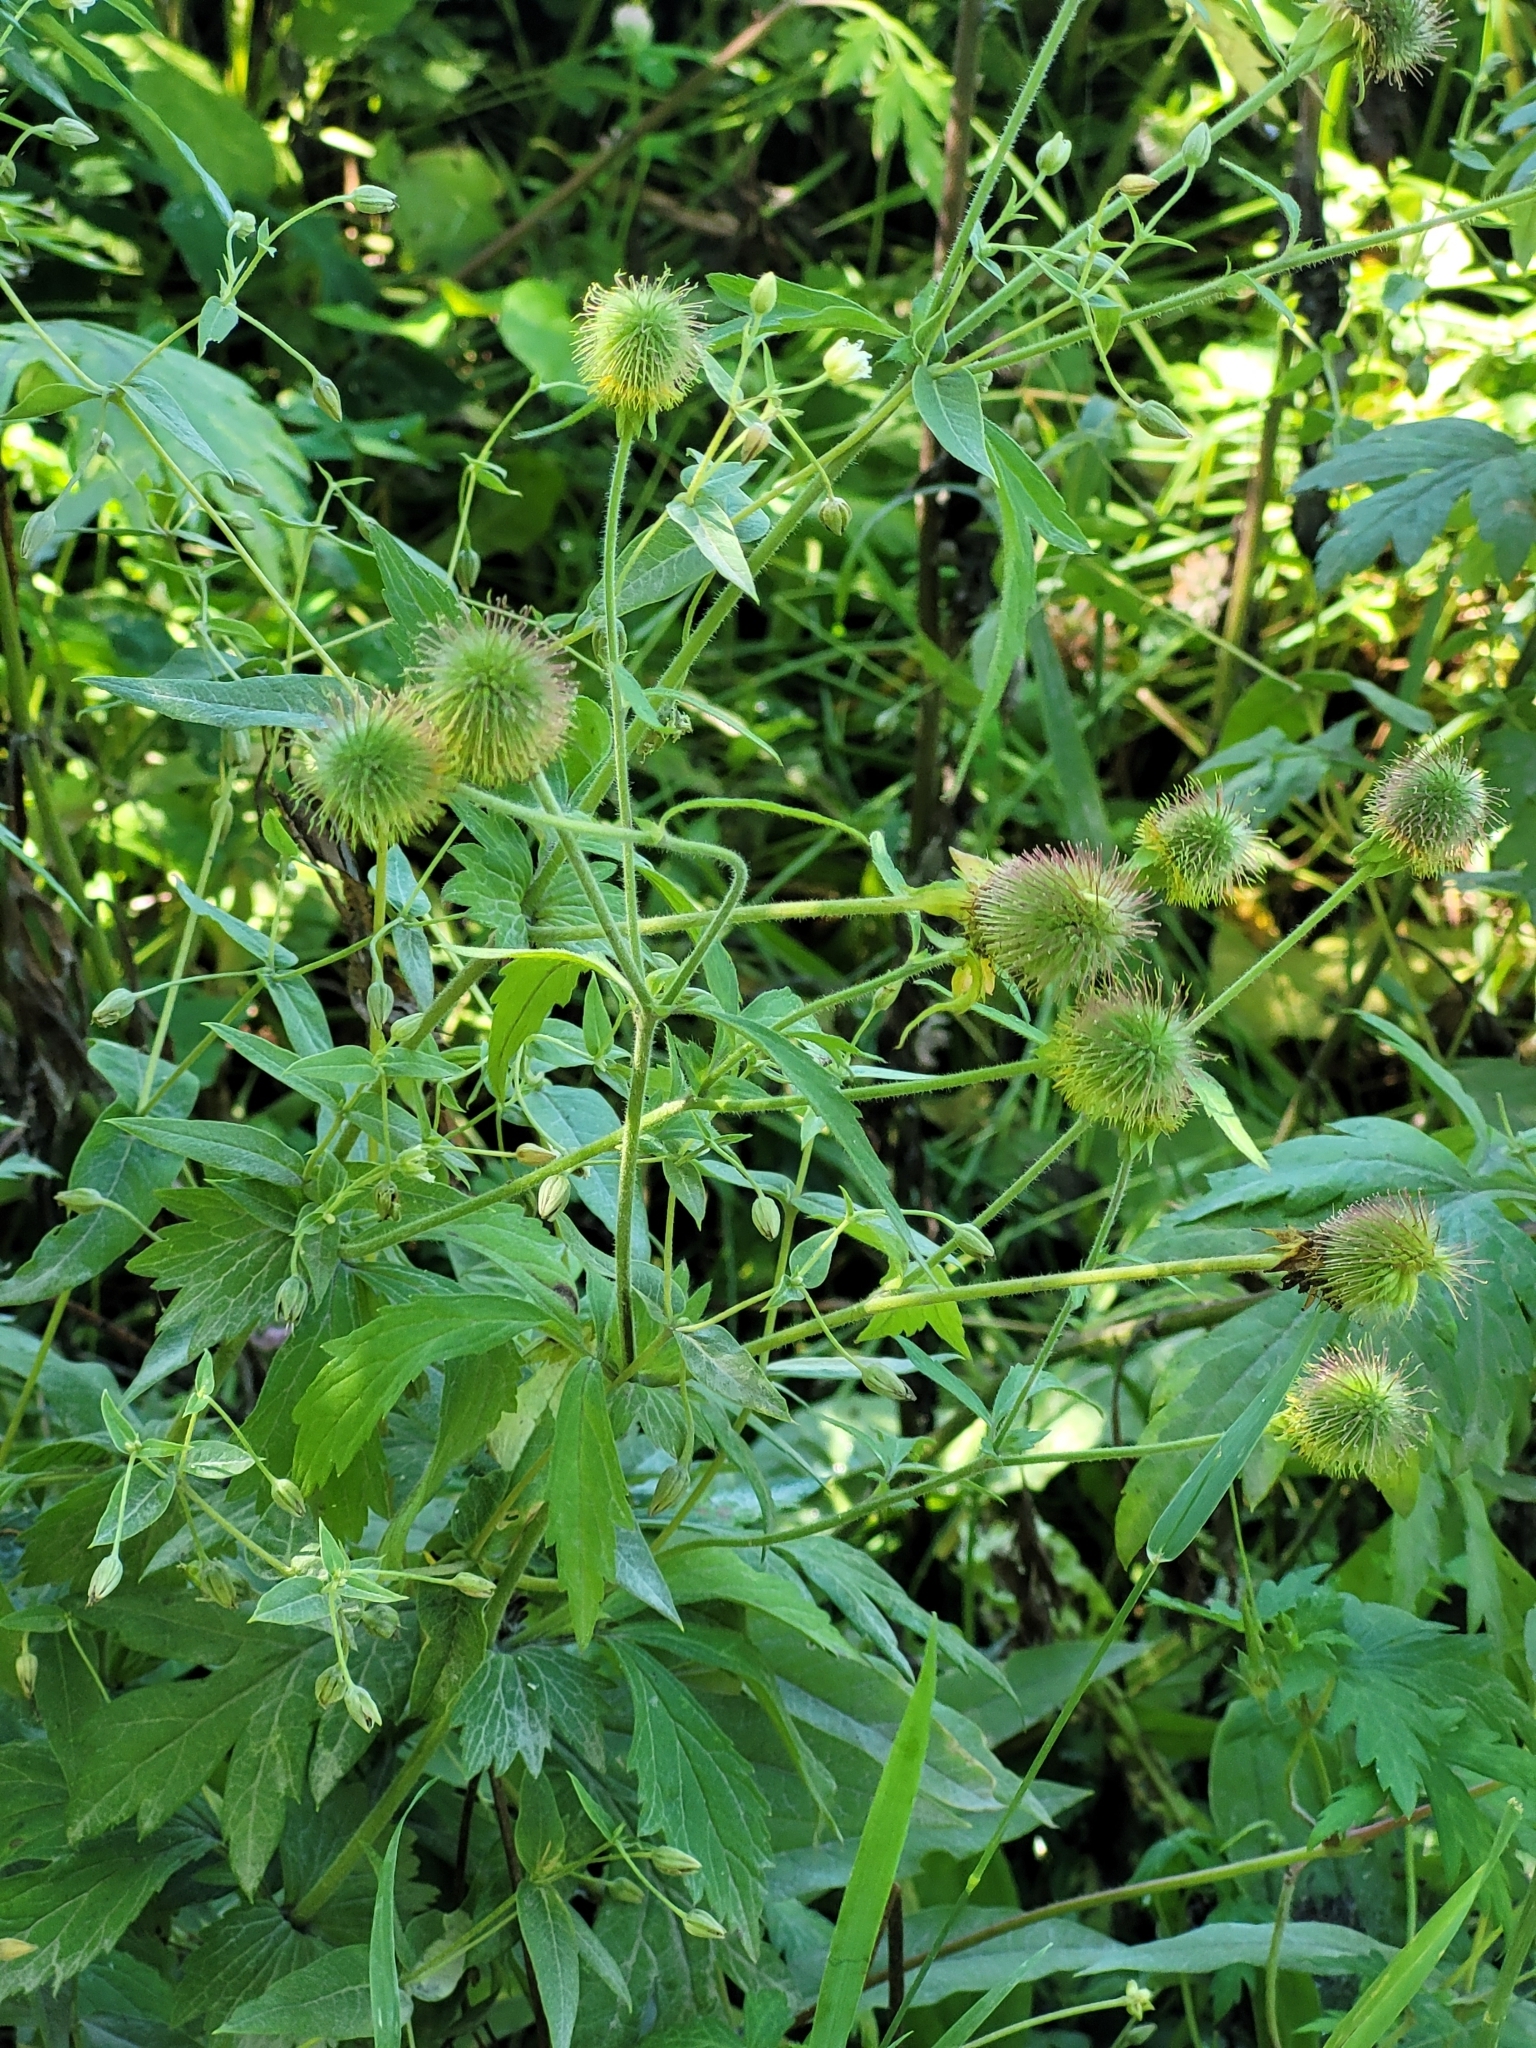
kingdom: Plantae
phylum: Tracheophyta
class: Magnoliopsida
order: Rosales
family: Rosaceae
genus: Geum
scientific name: Geum aleppicum
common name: Yellow avens
